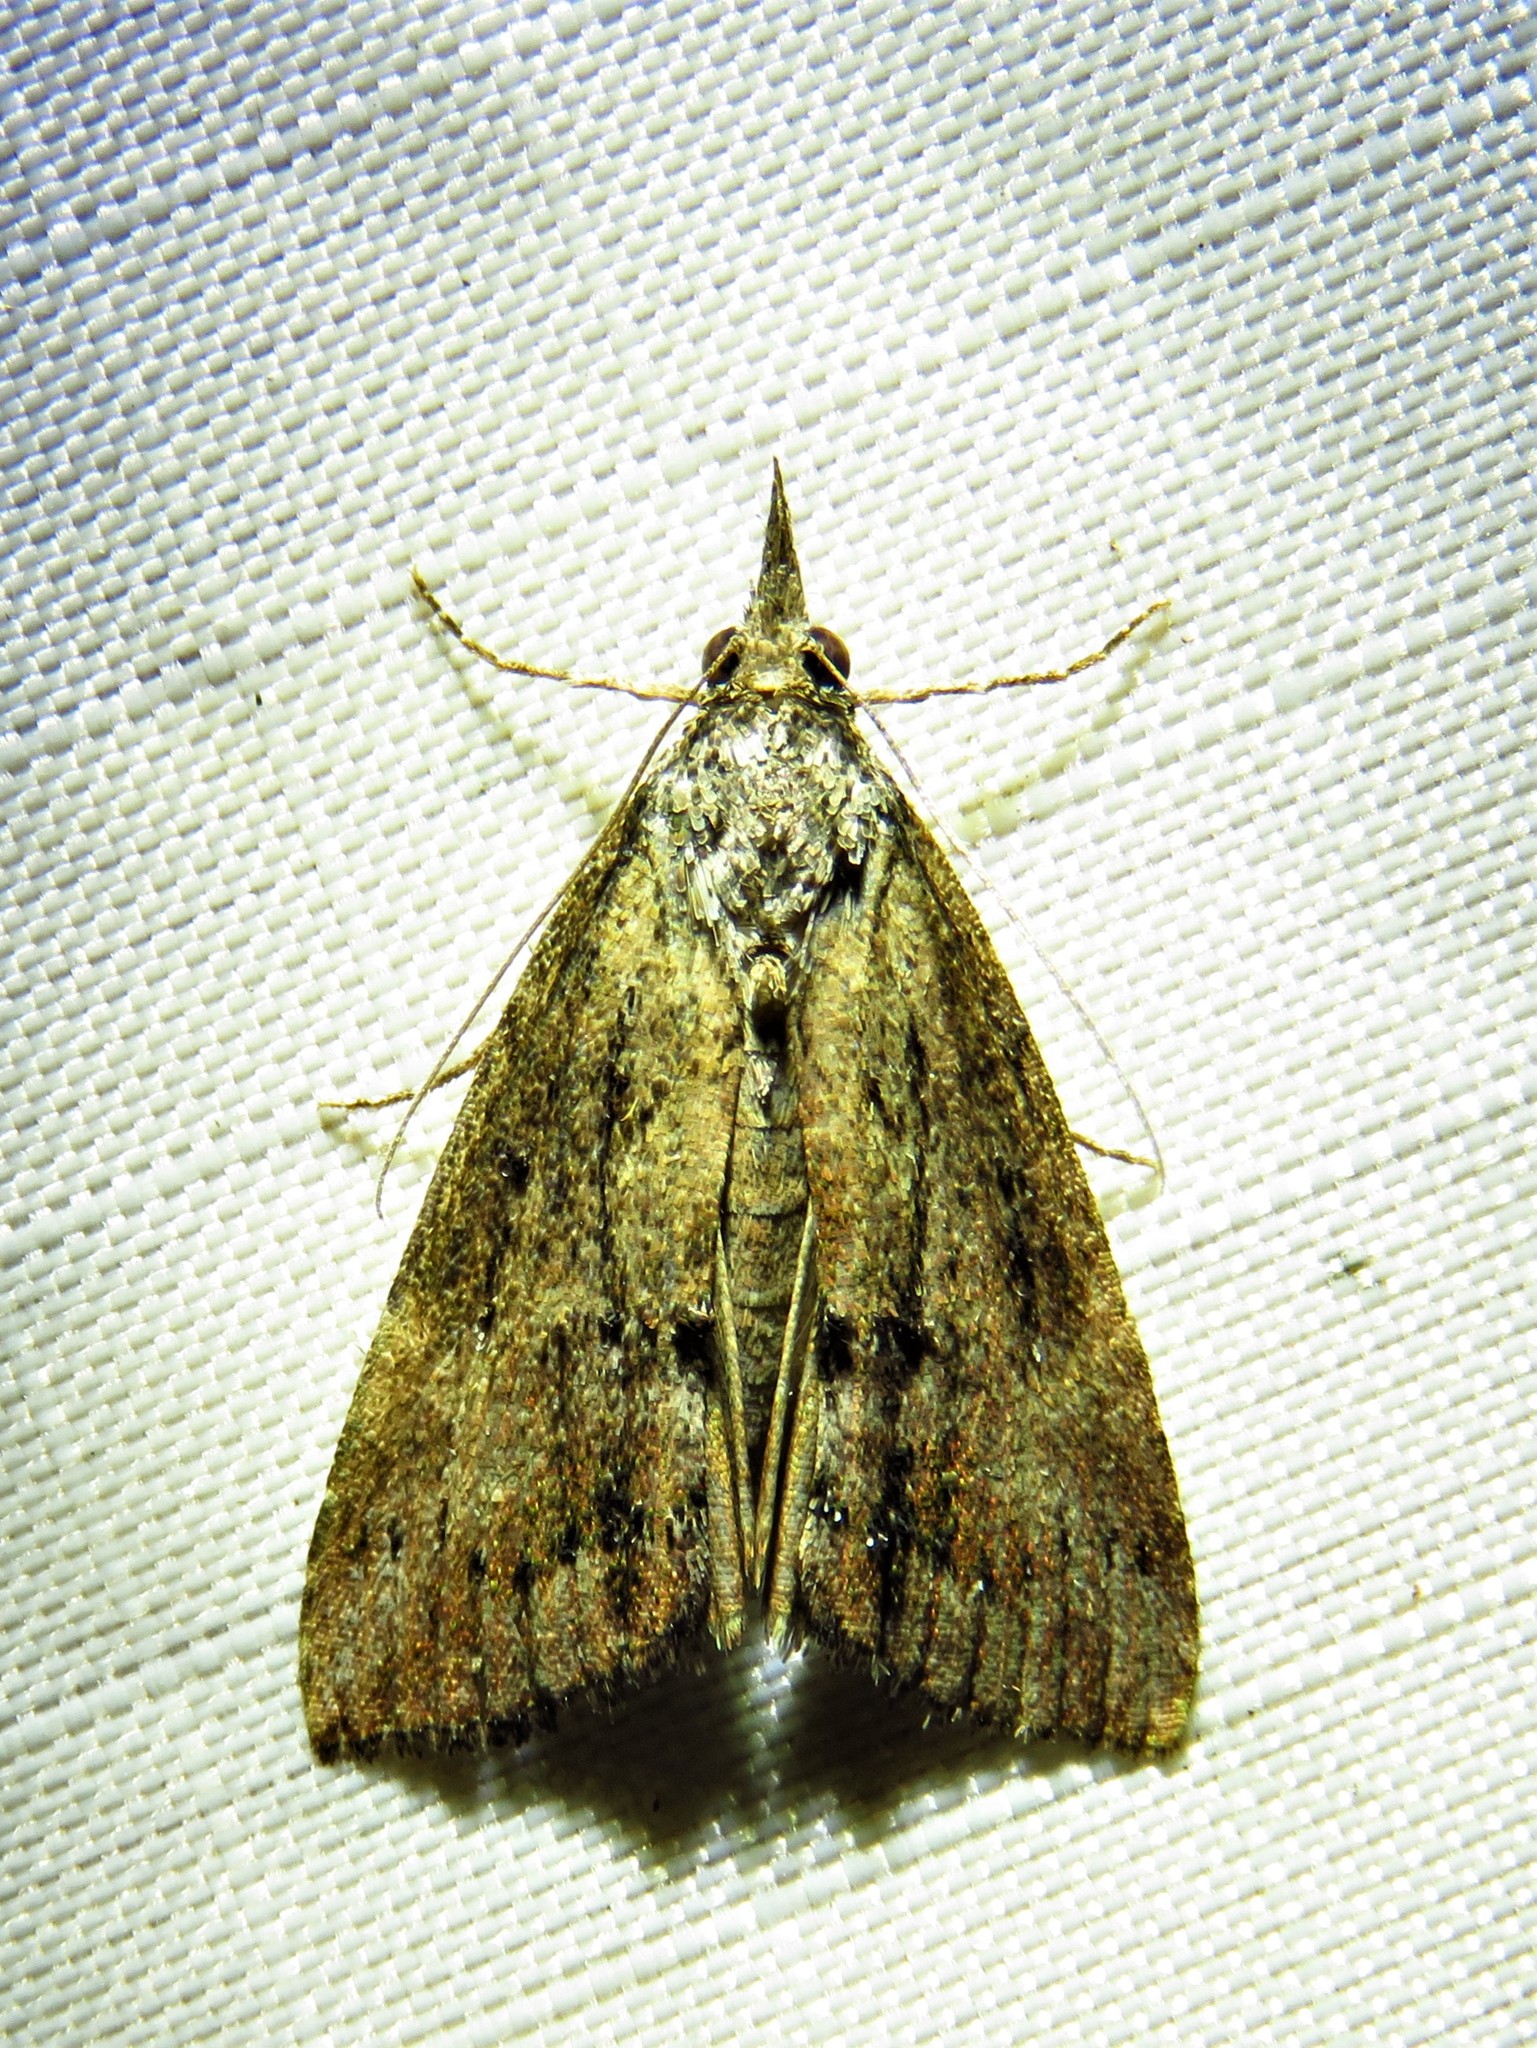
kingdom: Animalia
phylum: Arthropoda
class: Insecta
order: Lepidoptera
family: Erebidae
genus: Hypena
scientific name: Hypena scabra
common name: Green cloverworm
